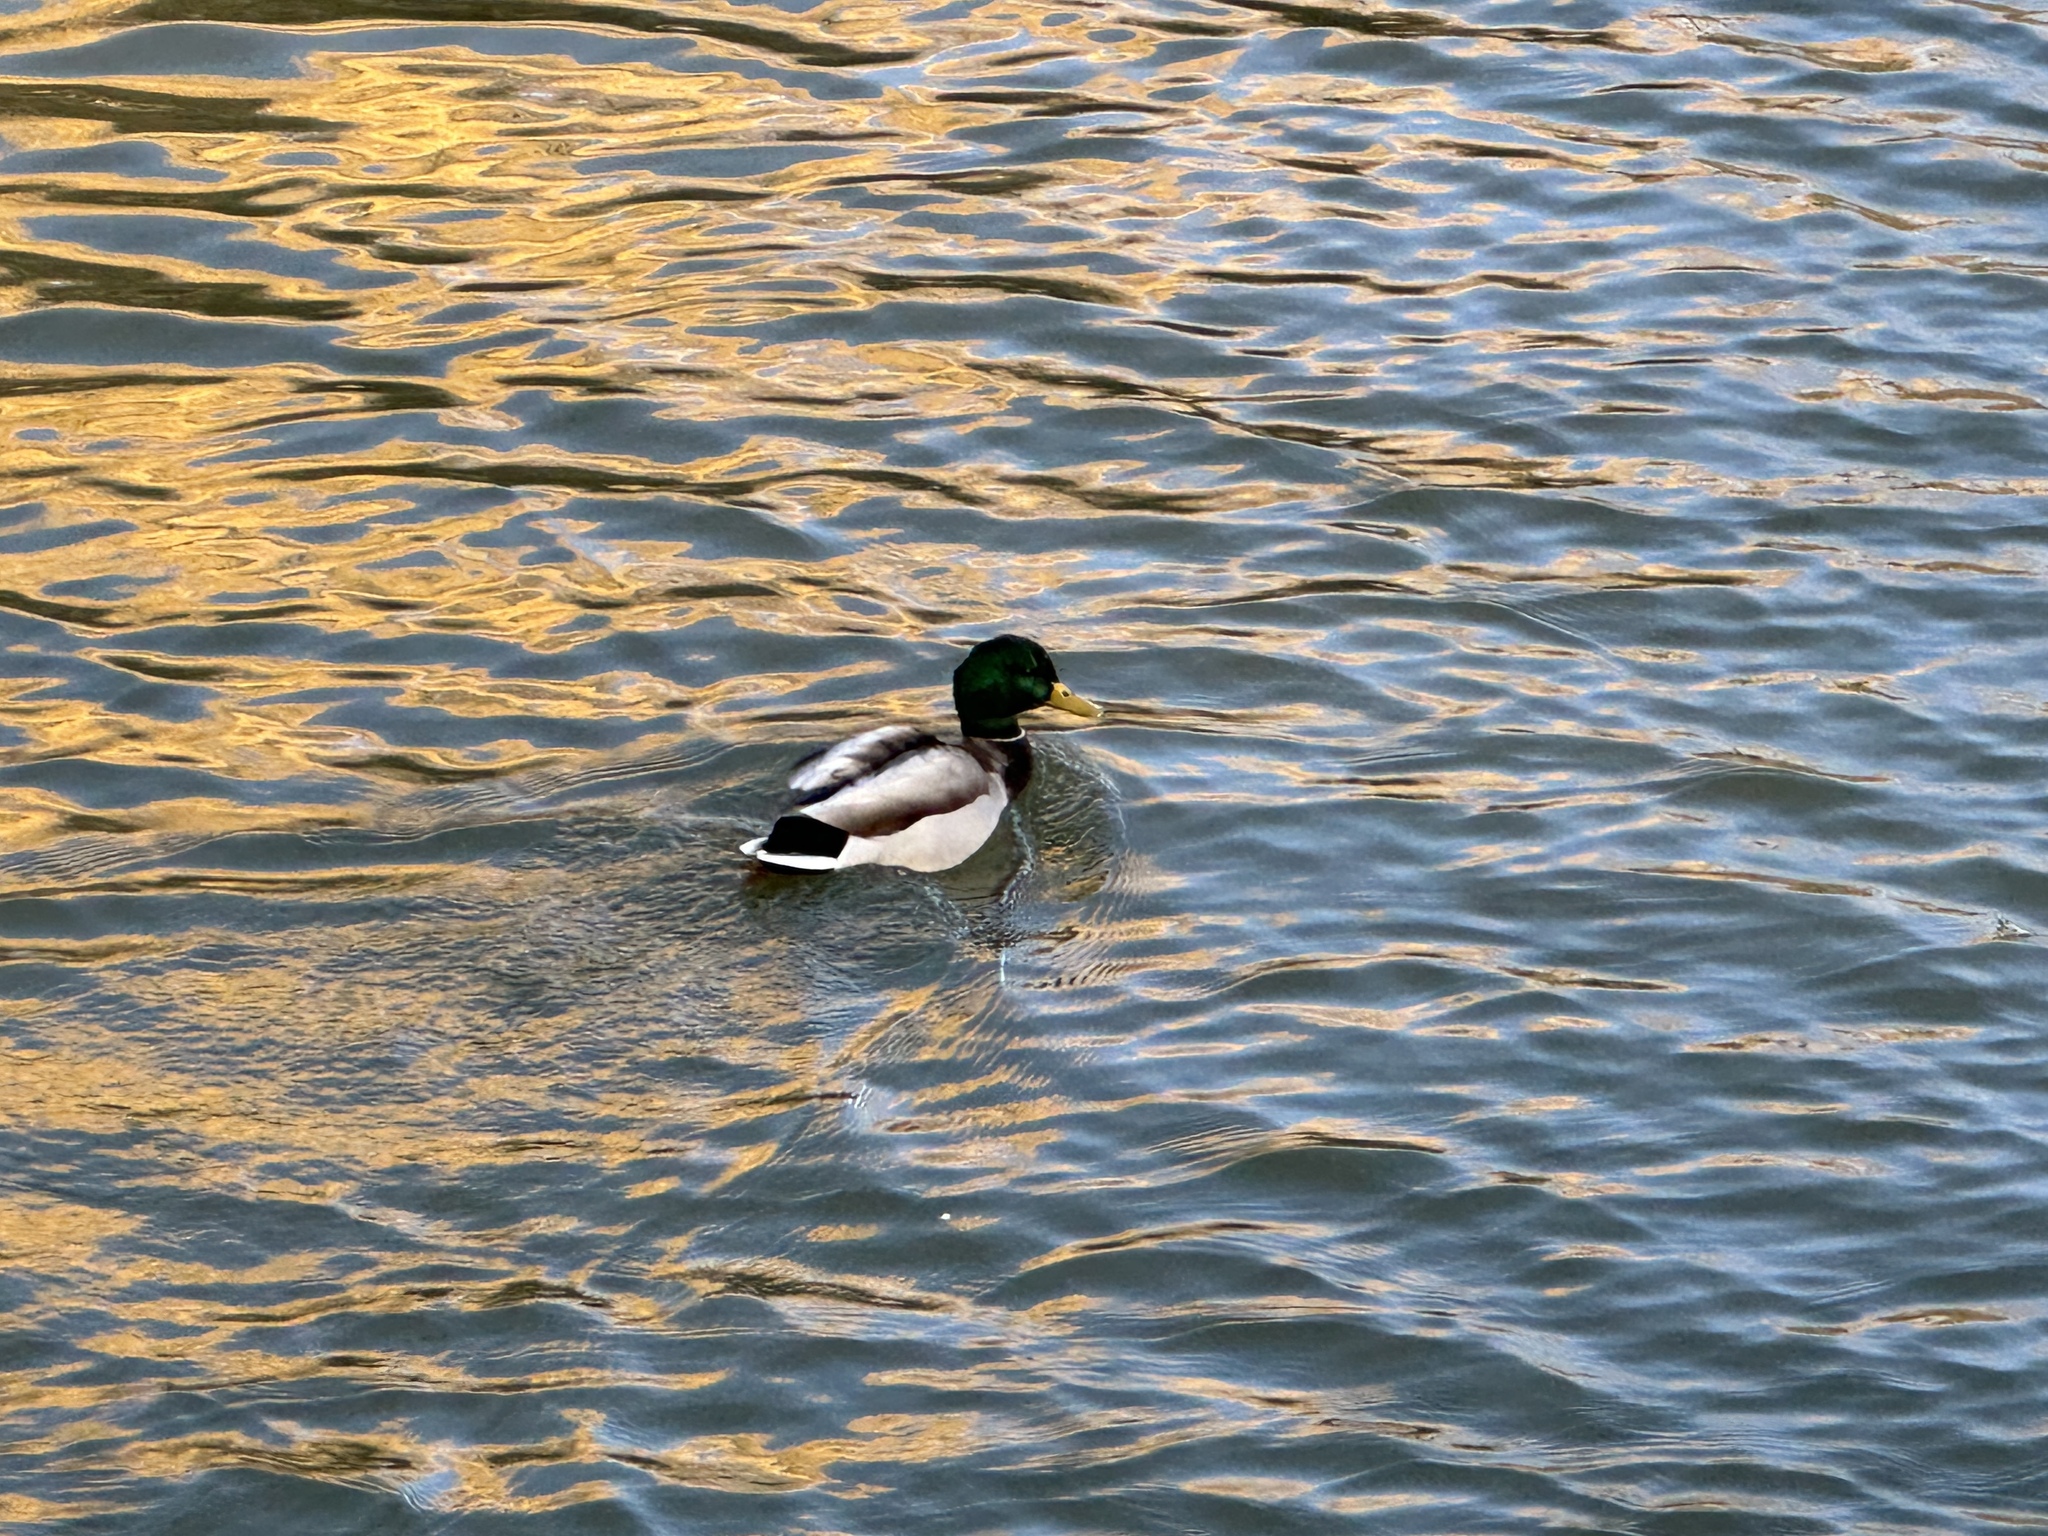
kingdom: Animalia
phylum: Chordata
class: Aves
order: Anseriformes
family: Anatidae
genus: Anas
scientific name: Anas platyrhynchos
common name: Mallard
